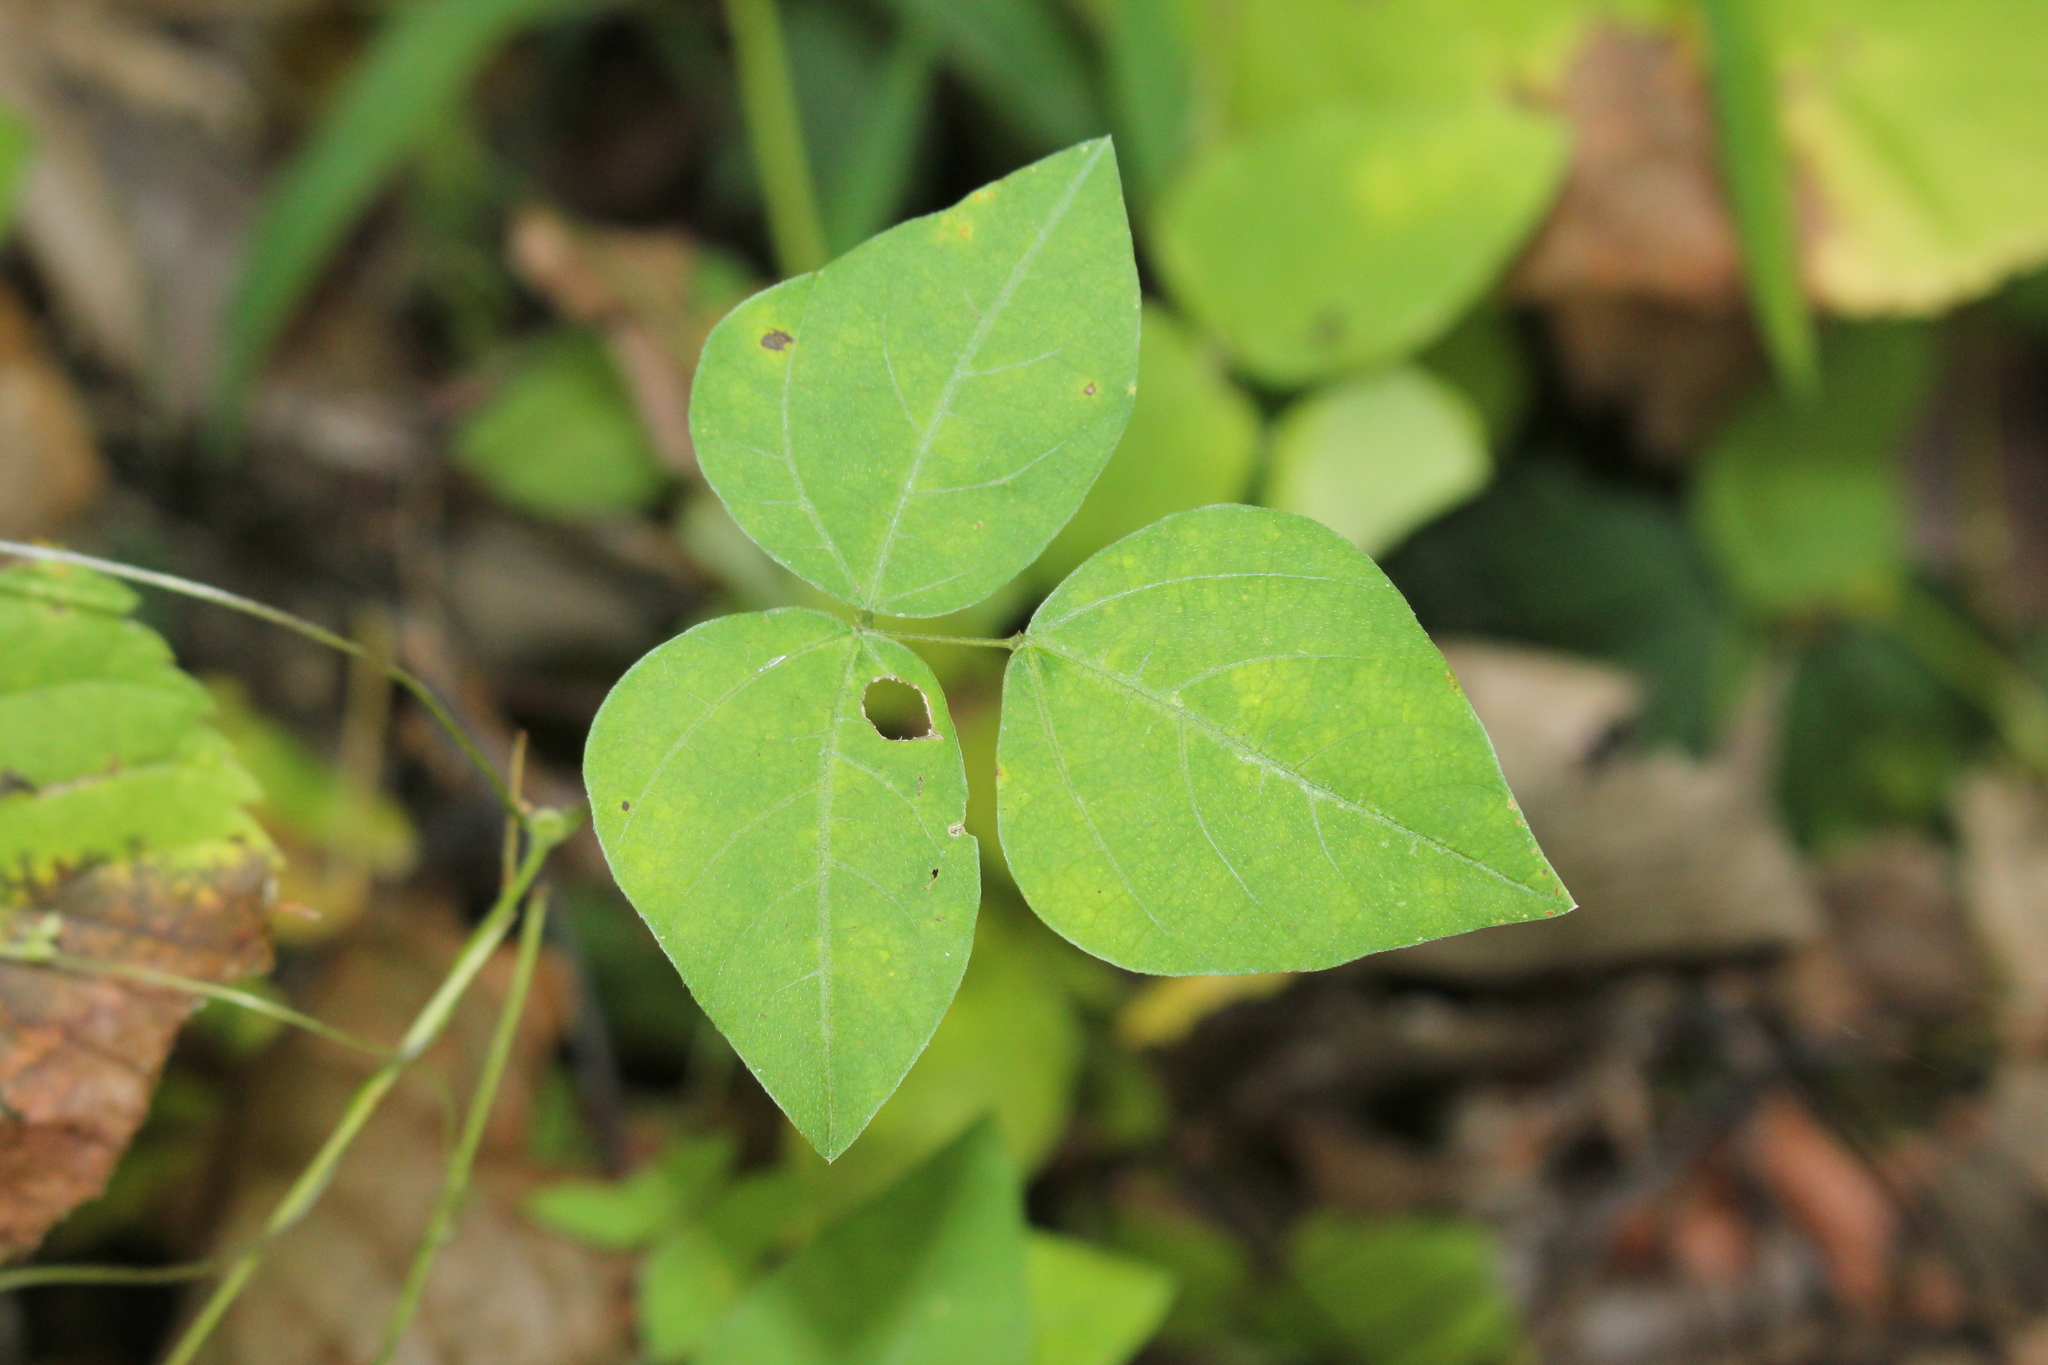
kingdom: Plantae
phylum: Tracheophyta
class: Magnoliopsida
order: Fabales
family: Fabaceae
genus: Amphicarpaea
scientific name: Amphicarpaea bracteata
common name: American hog peanut
